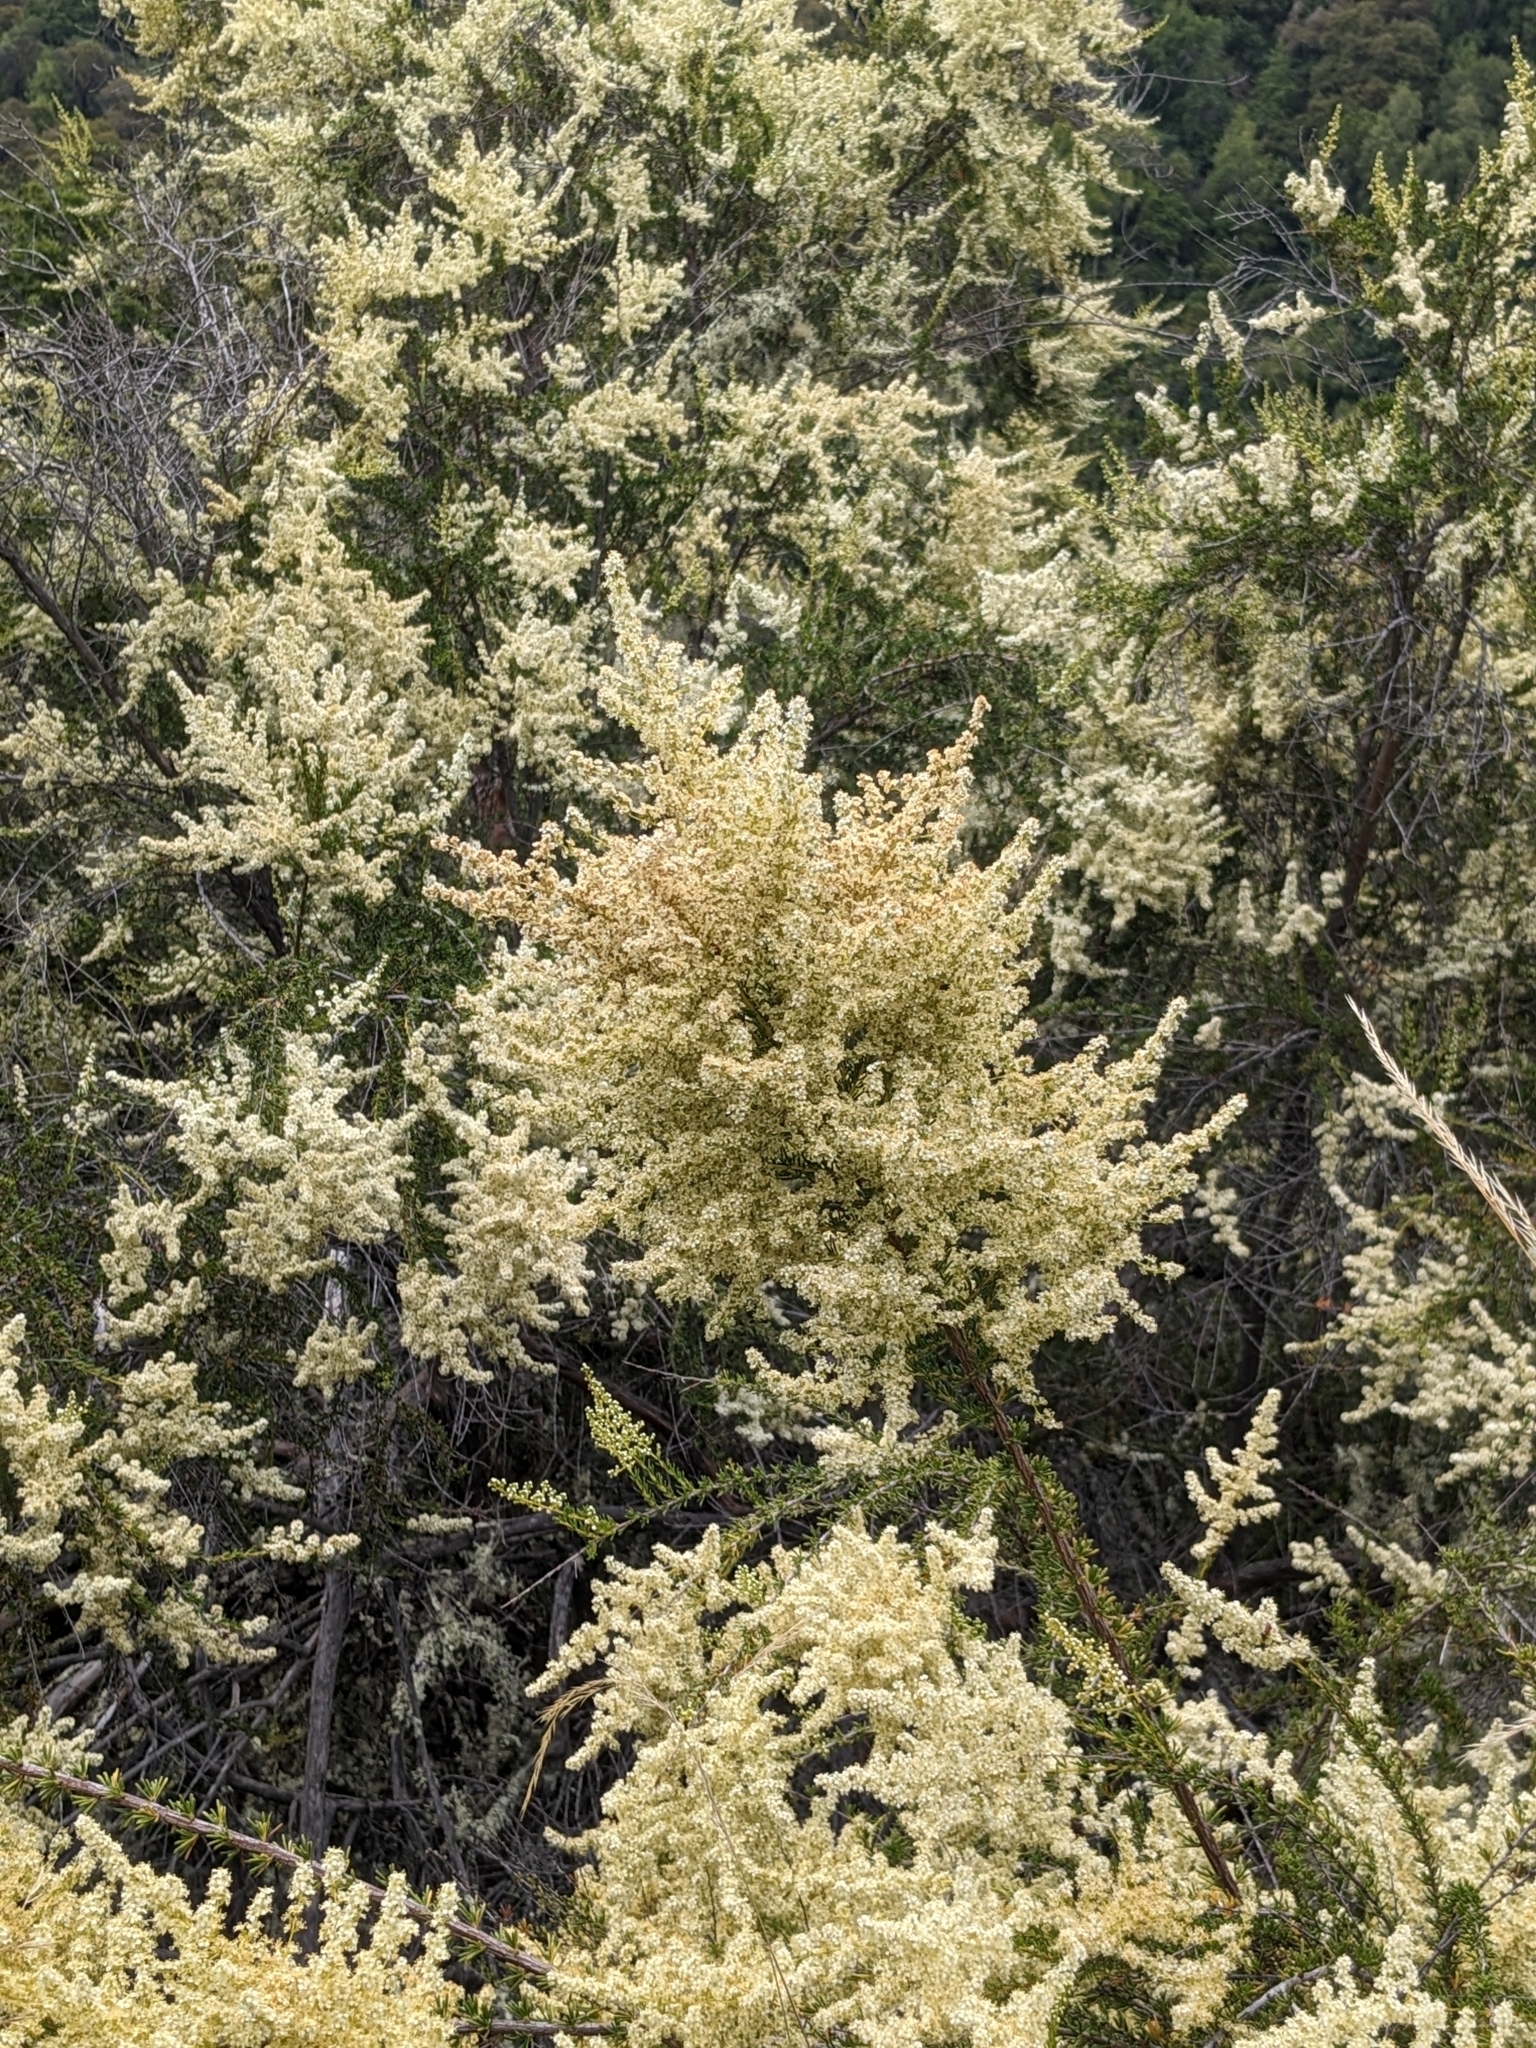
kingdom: Plantae
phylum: Tracheophyta
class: Magnoliopsida
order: Rosales
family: Rosaceae
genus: Adenostoma
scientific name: Adenostoma fasciculatum
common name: Chamise
